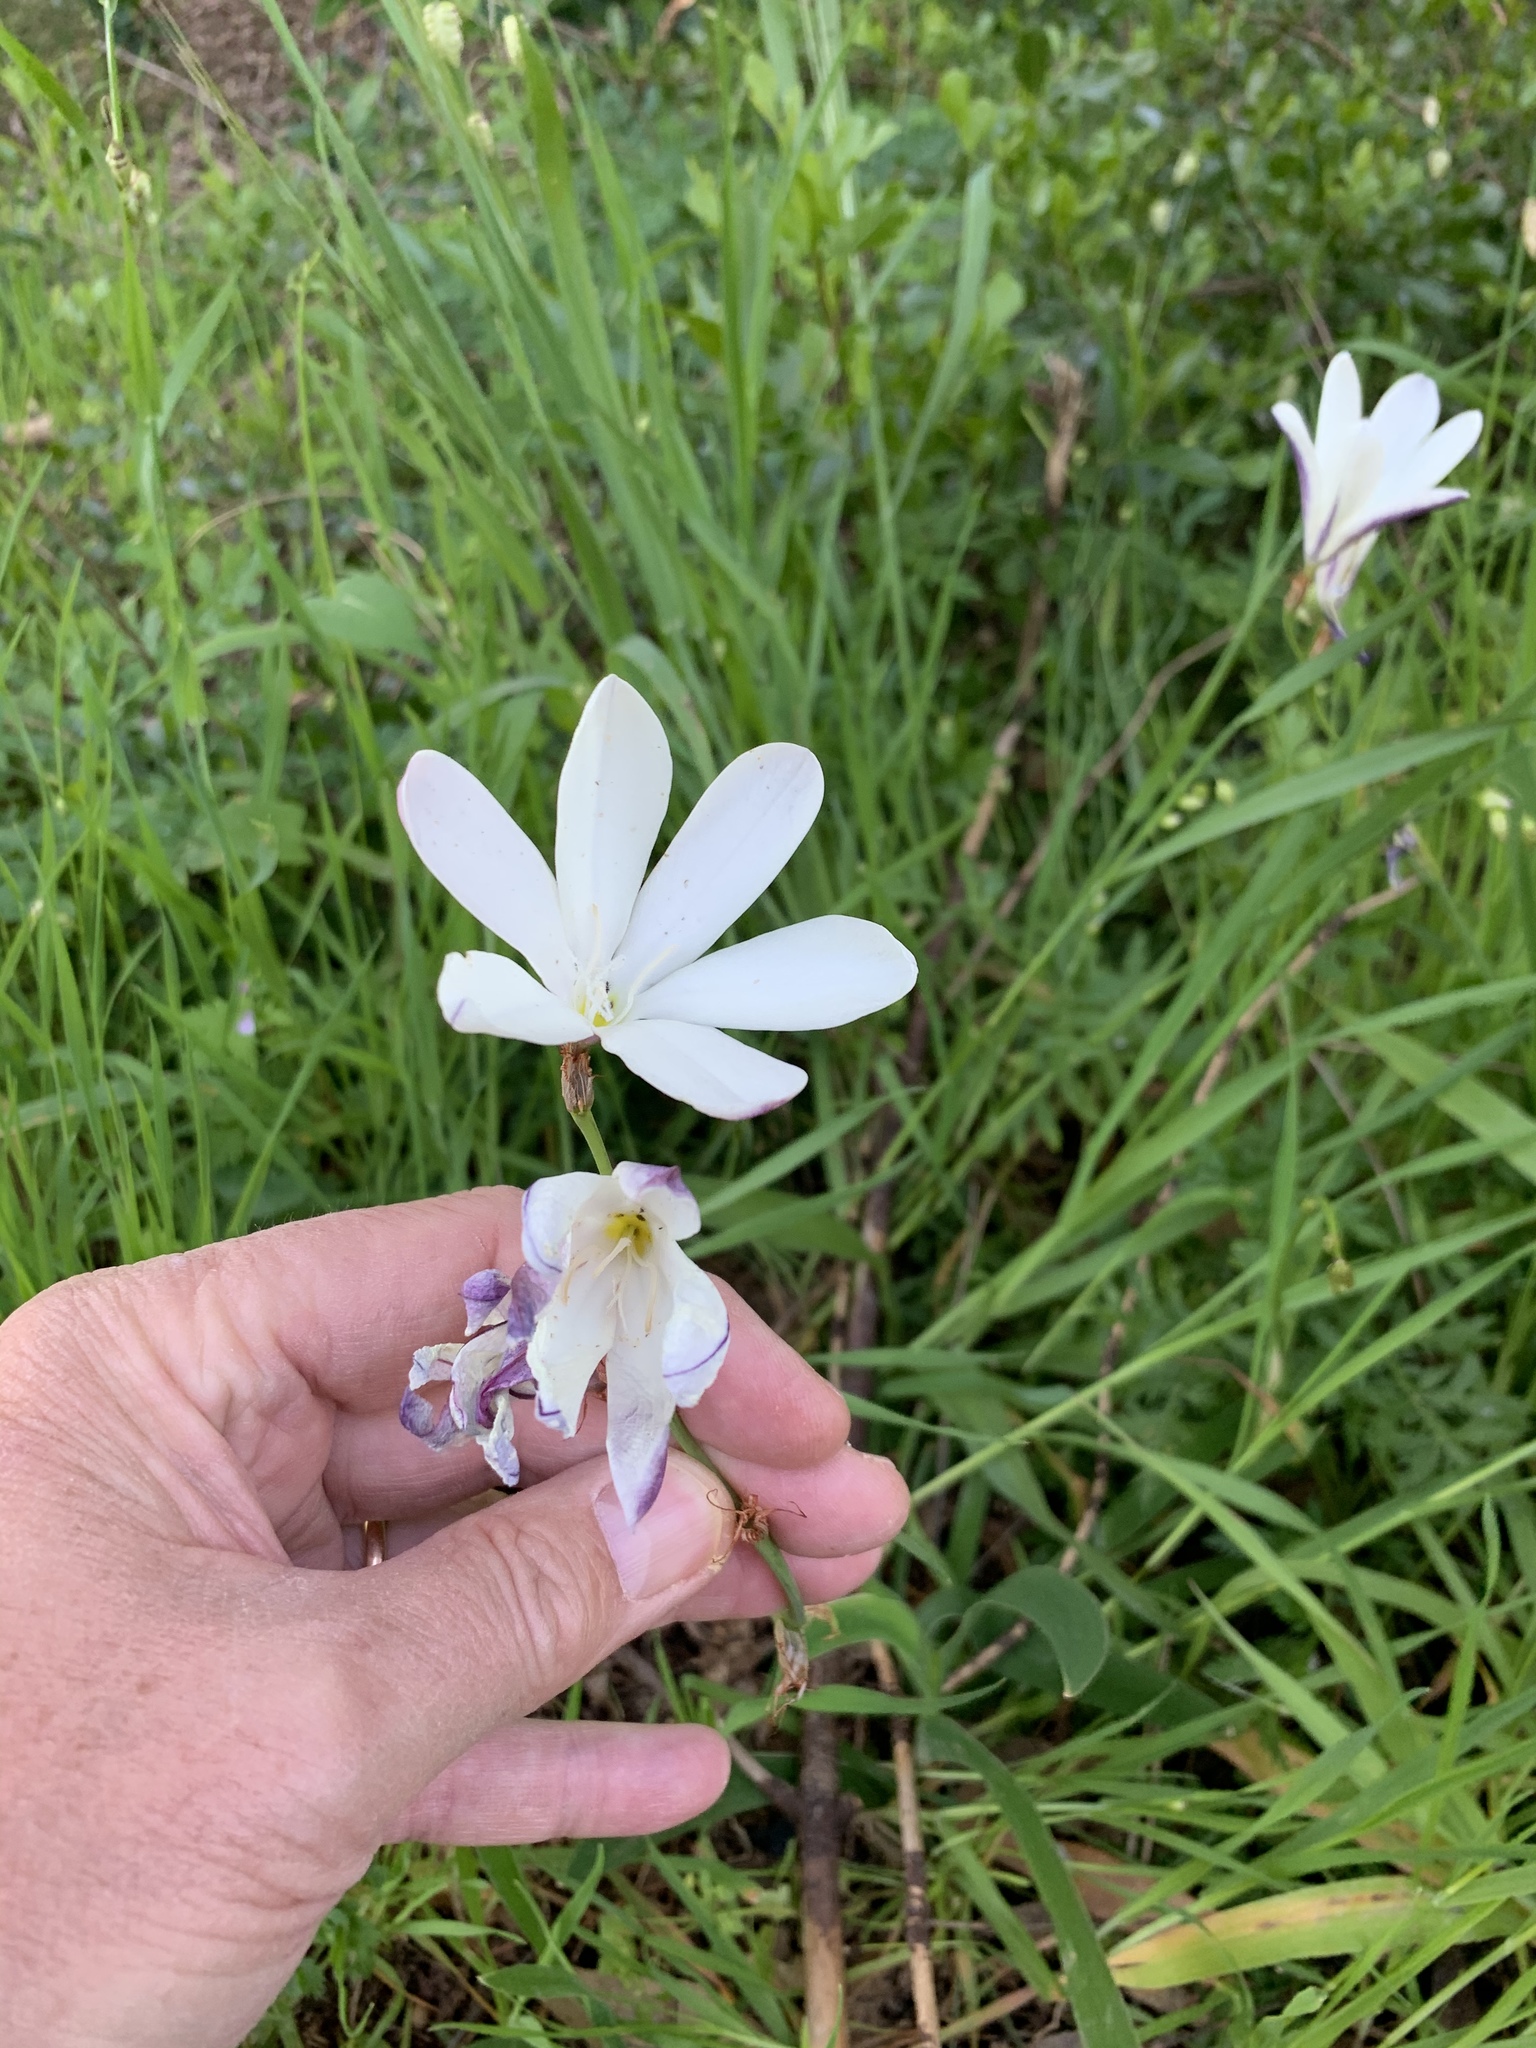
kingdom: Plantae
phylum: Tracheophyta
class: Liliopsida
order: Asparagales
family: Iridaceae
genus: Sparaxis
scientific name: Sparaxis grandiflora
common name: Plain harlequin-flower
